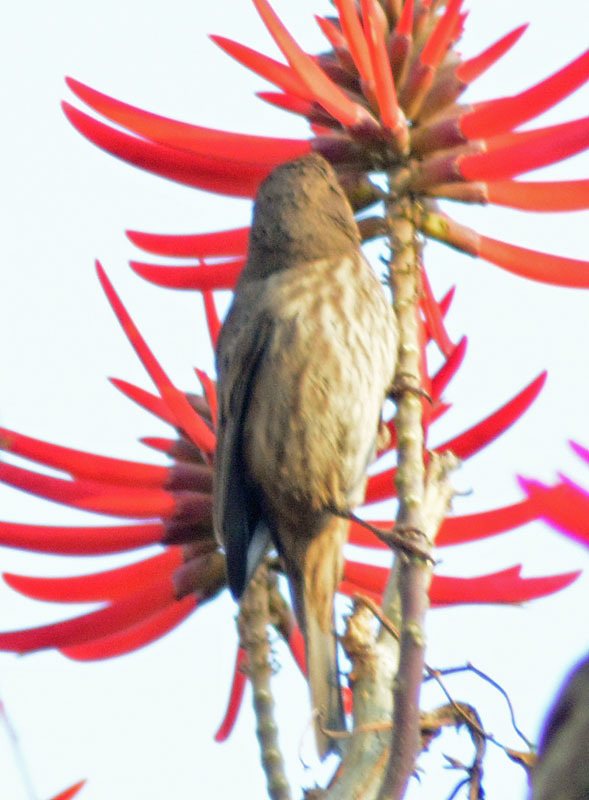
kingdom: Animalia
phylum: Chordata
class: Aves
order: Passeriformes
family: Fringillidae
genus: Haemorhous
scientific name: Haemorhous mexicanus
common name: House finch
